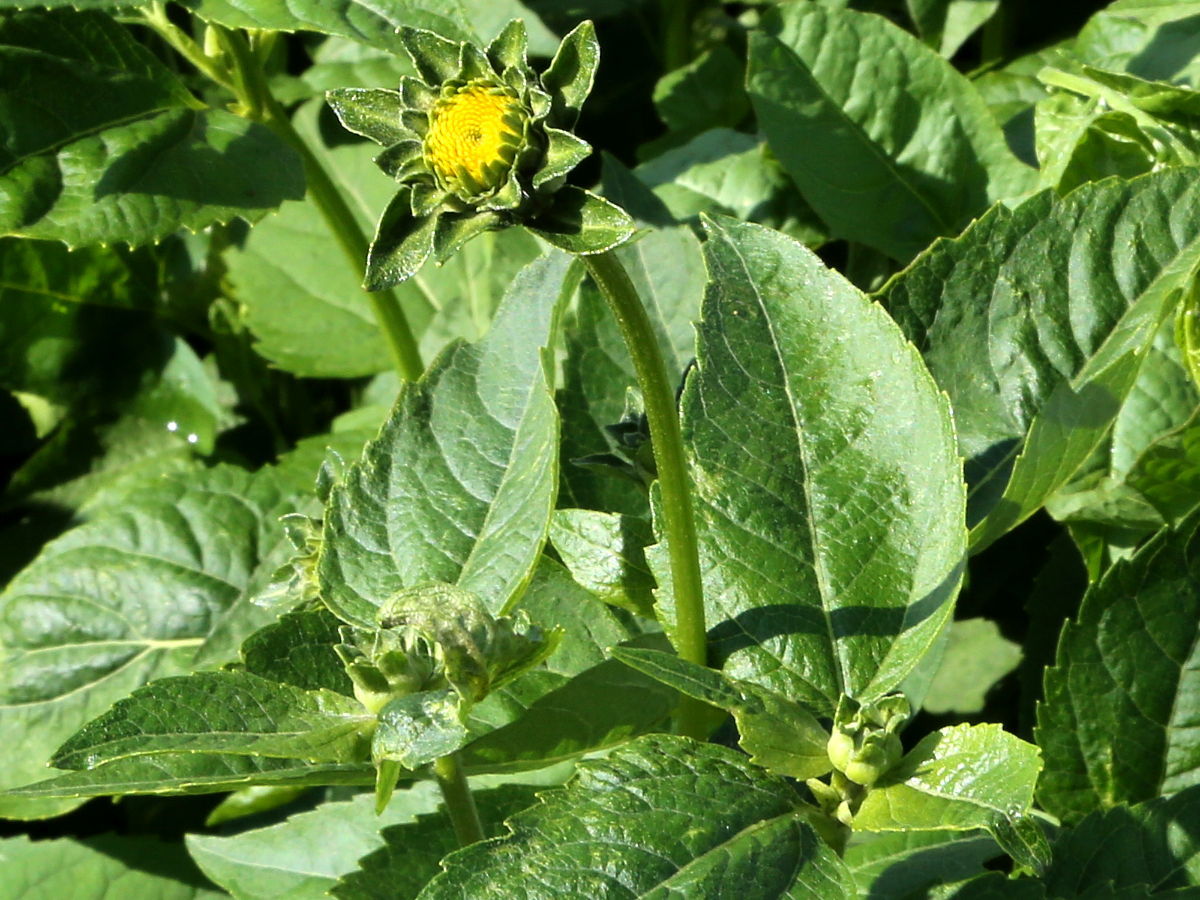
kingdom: Plantae
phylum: Tracheophyta
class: Magnoliopsida
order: Asterales
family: Asteraceae
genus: Heliopsis
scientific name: Heliopsis helianthoides
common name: False sunflower
